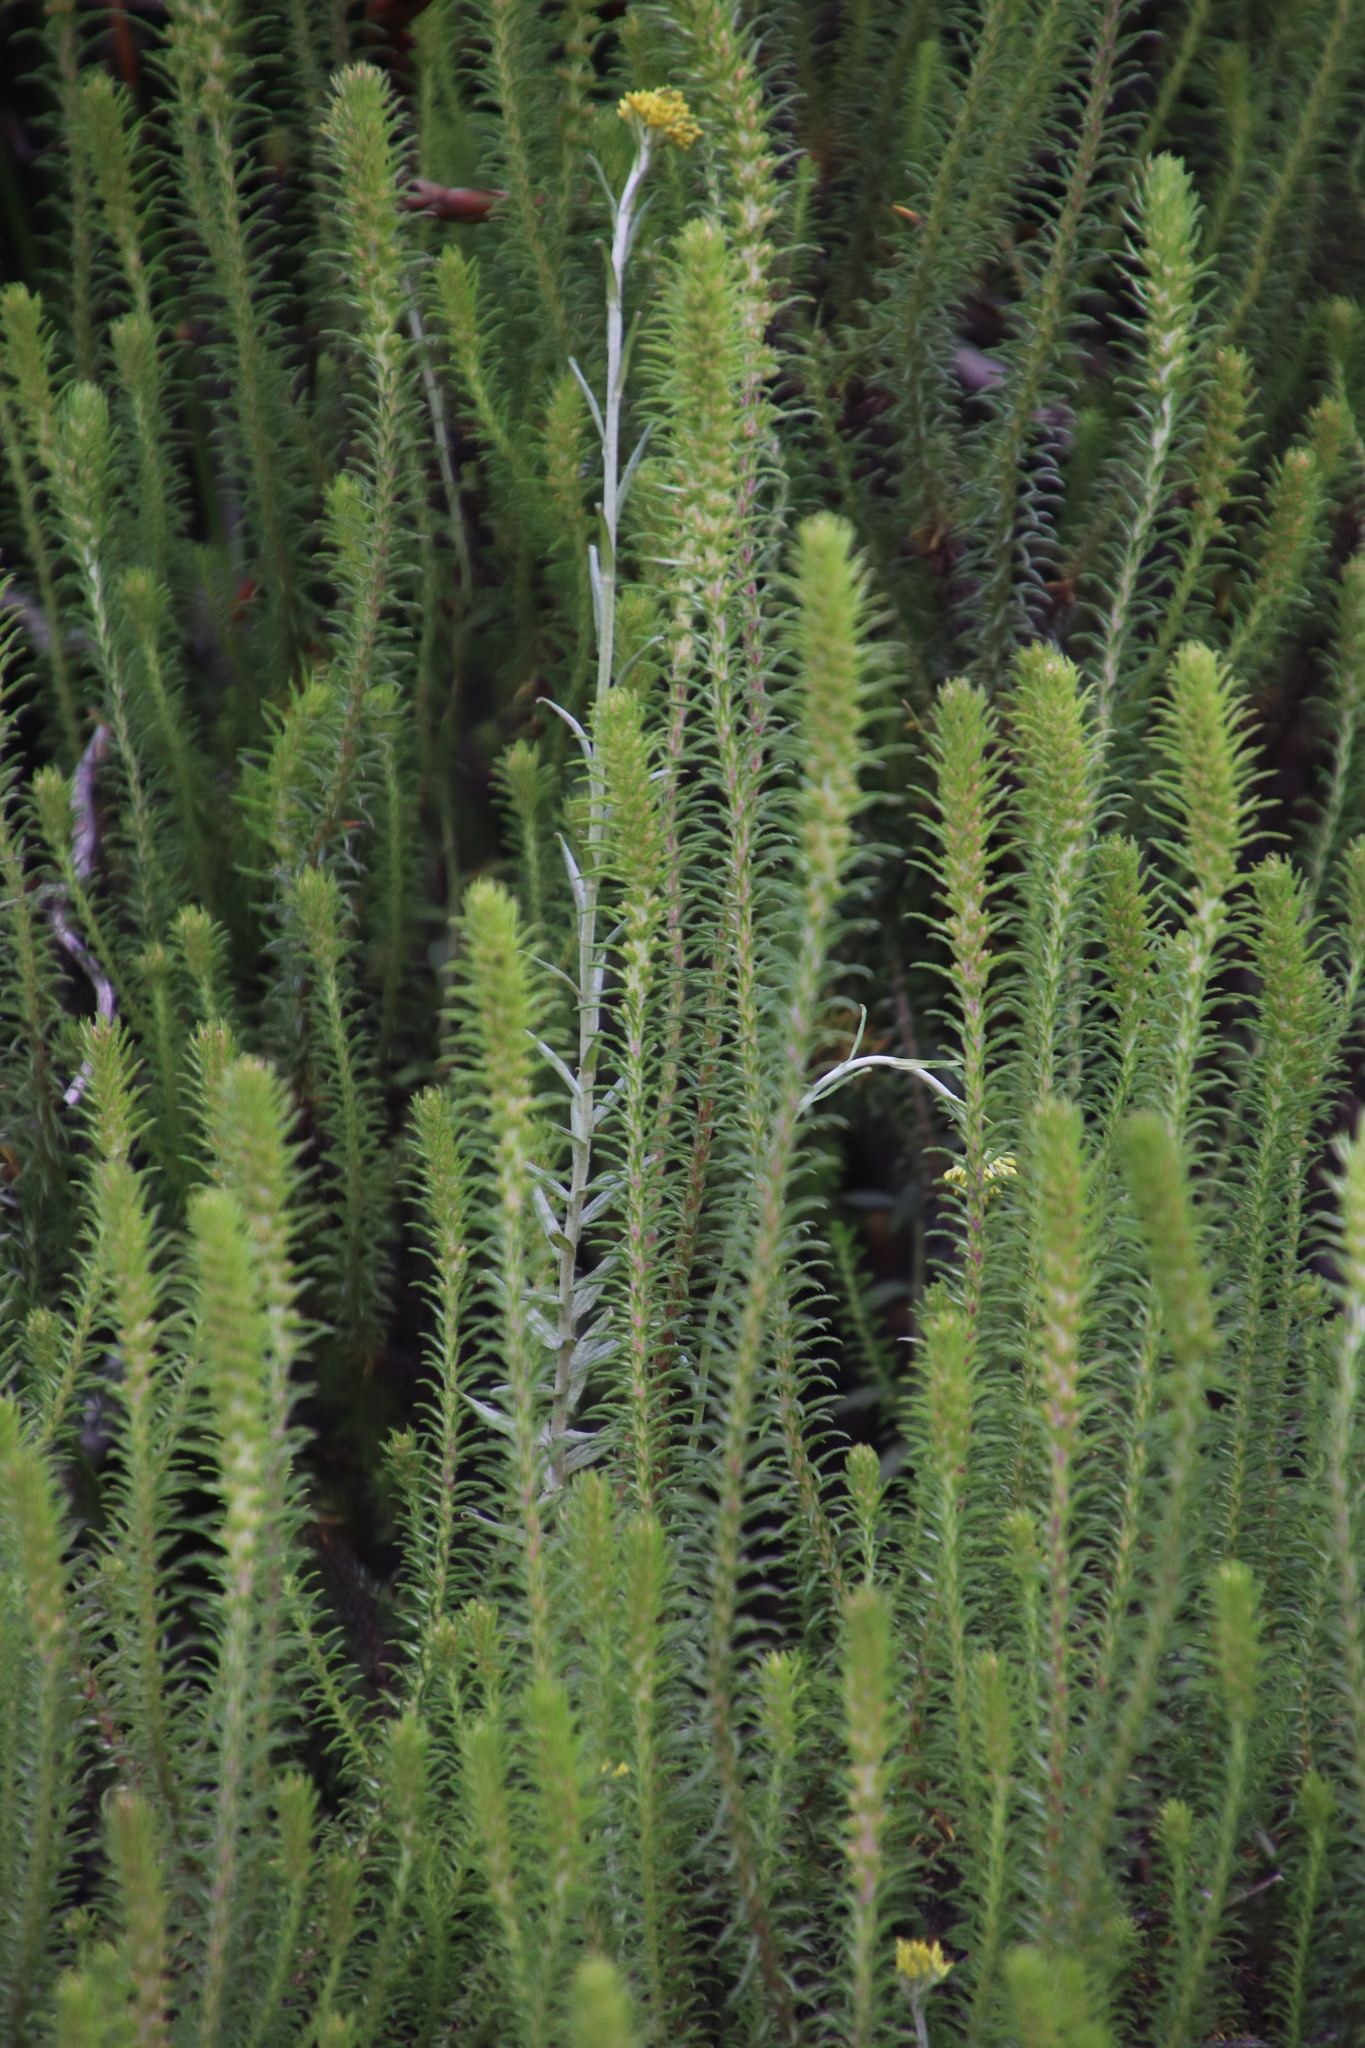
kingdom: Plantae
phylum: Tracheophyta
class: Magnoliopsida
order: Asterales
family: Asteraceae
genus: Myrovernix
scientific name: Myrovernix longifolius
